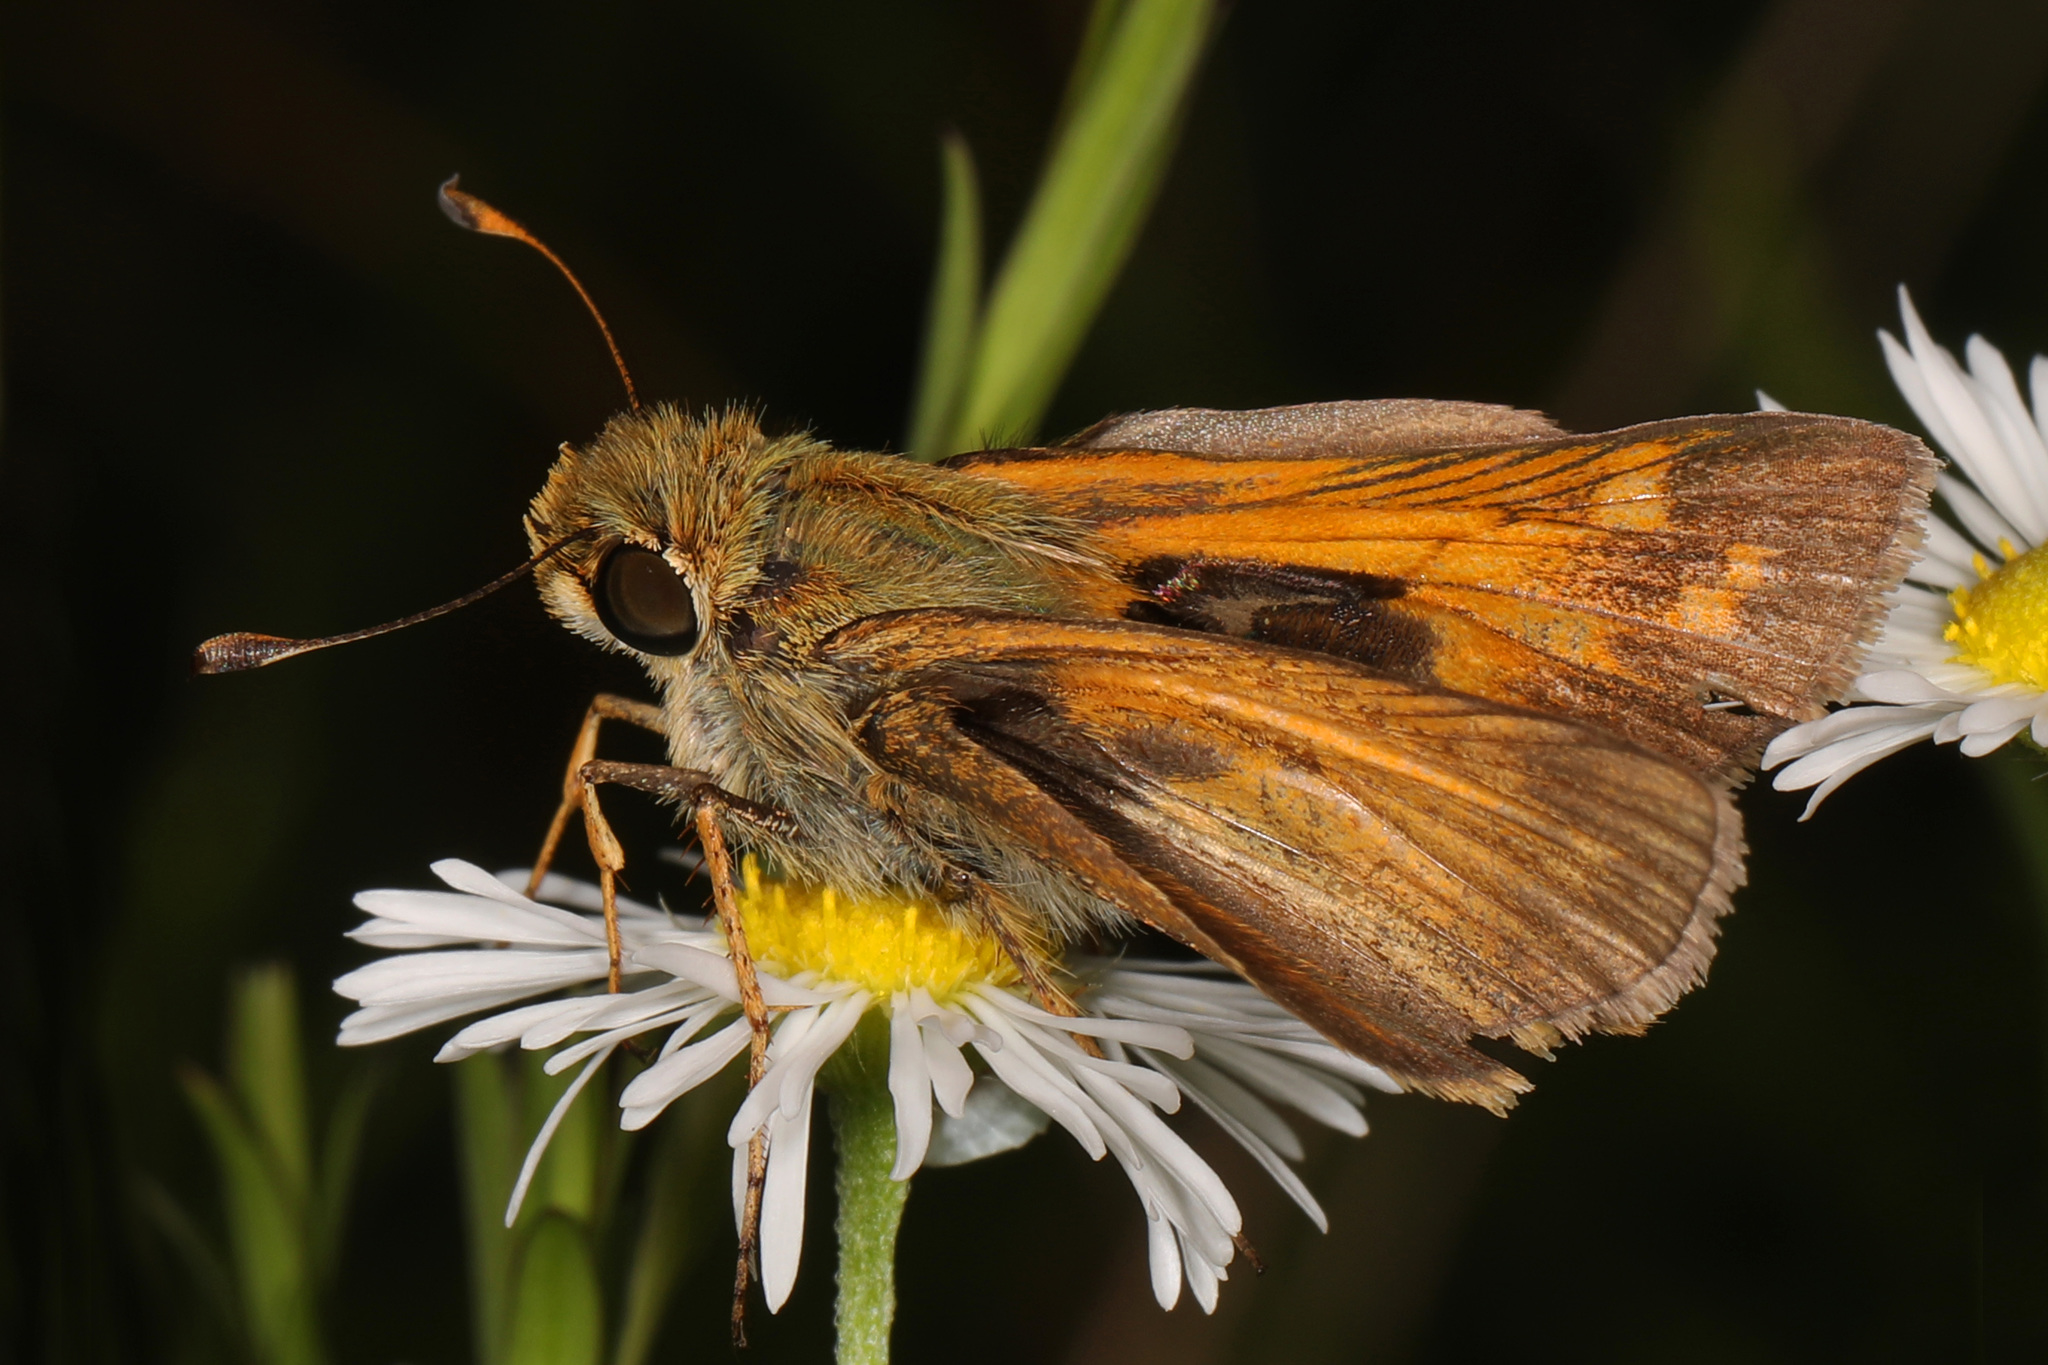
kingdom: Animalia
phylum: Arthropoda
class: Insecta
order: Lepidoptera
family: Hesperiidae
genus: Atalopedes
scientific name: Atalopedes
